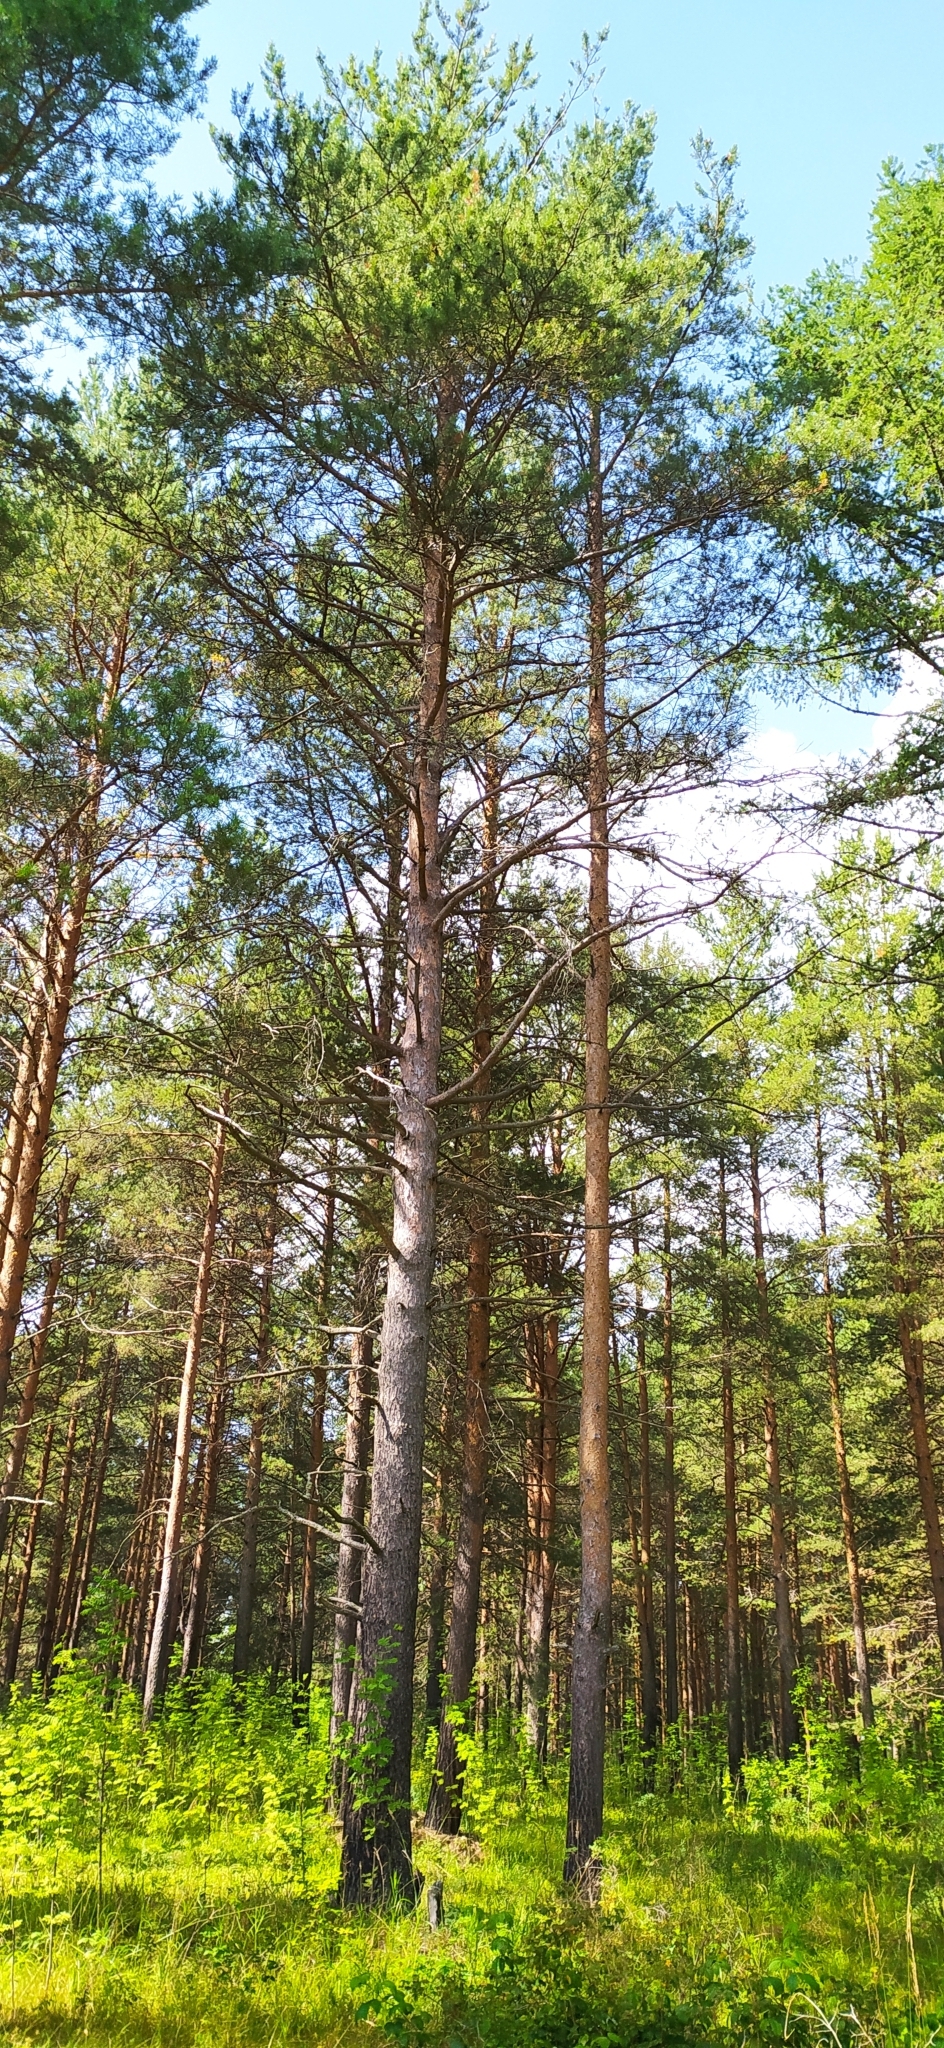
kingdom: Plantae
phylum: Tracheophyta
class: Pinopsida
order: Pinales
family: Pinaceae
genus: Pinus
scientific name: Pinus sylvestris
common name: Scots pine
